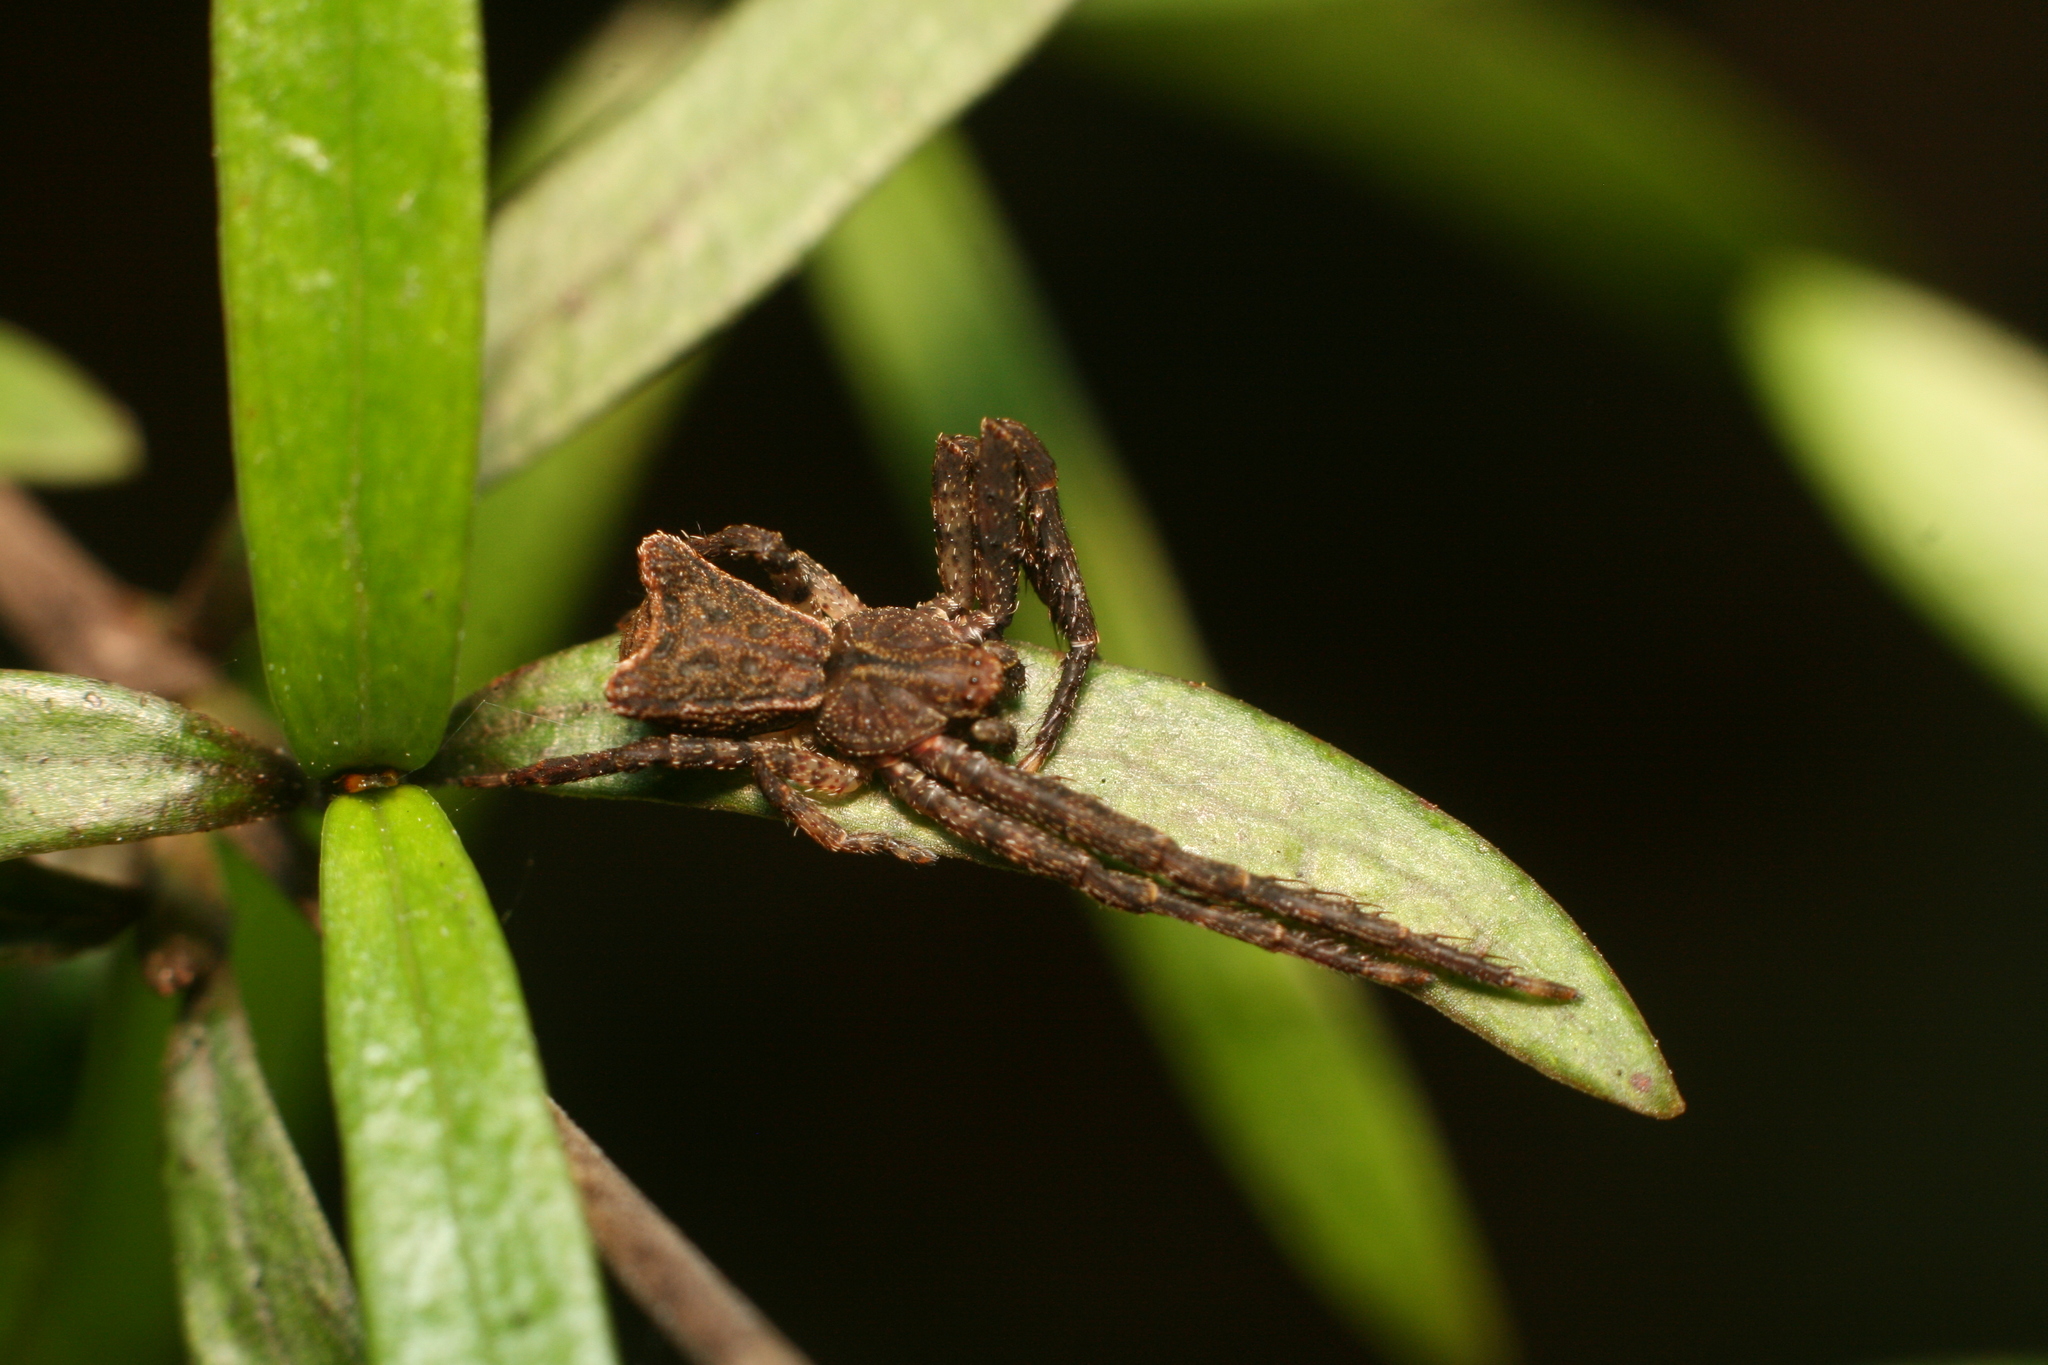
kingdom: Animalia
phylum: Arthropoda
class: Arachnida
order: Araneae
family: Thomisidae
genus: Sidymella
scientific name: Sidymella angularis
